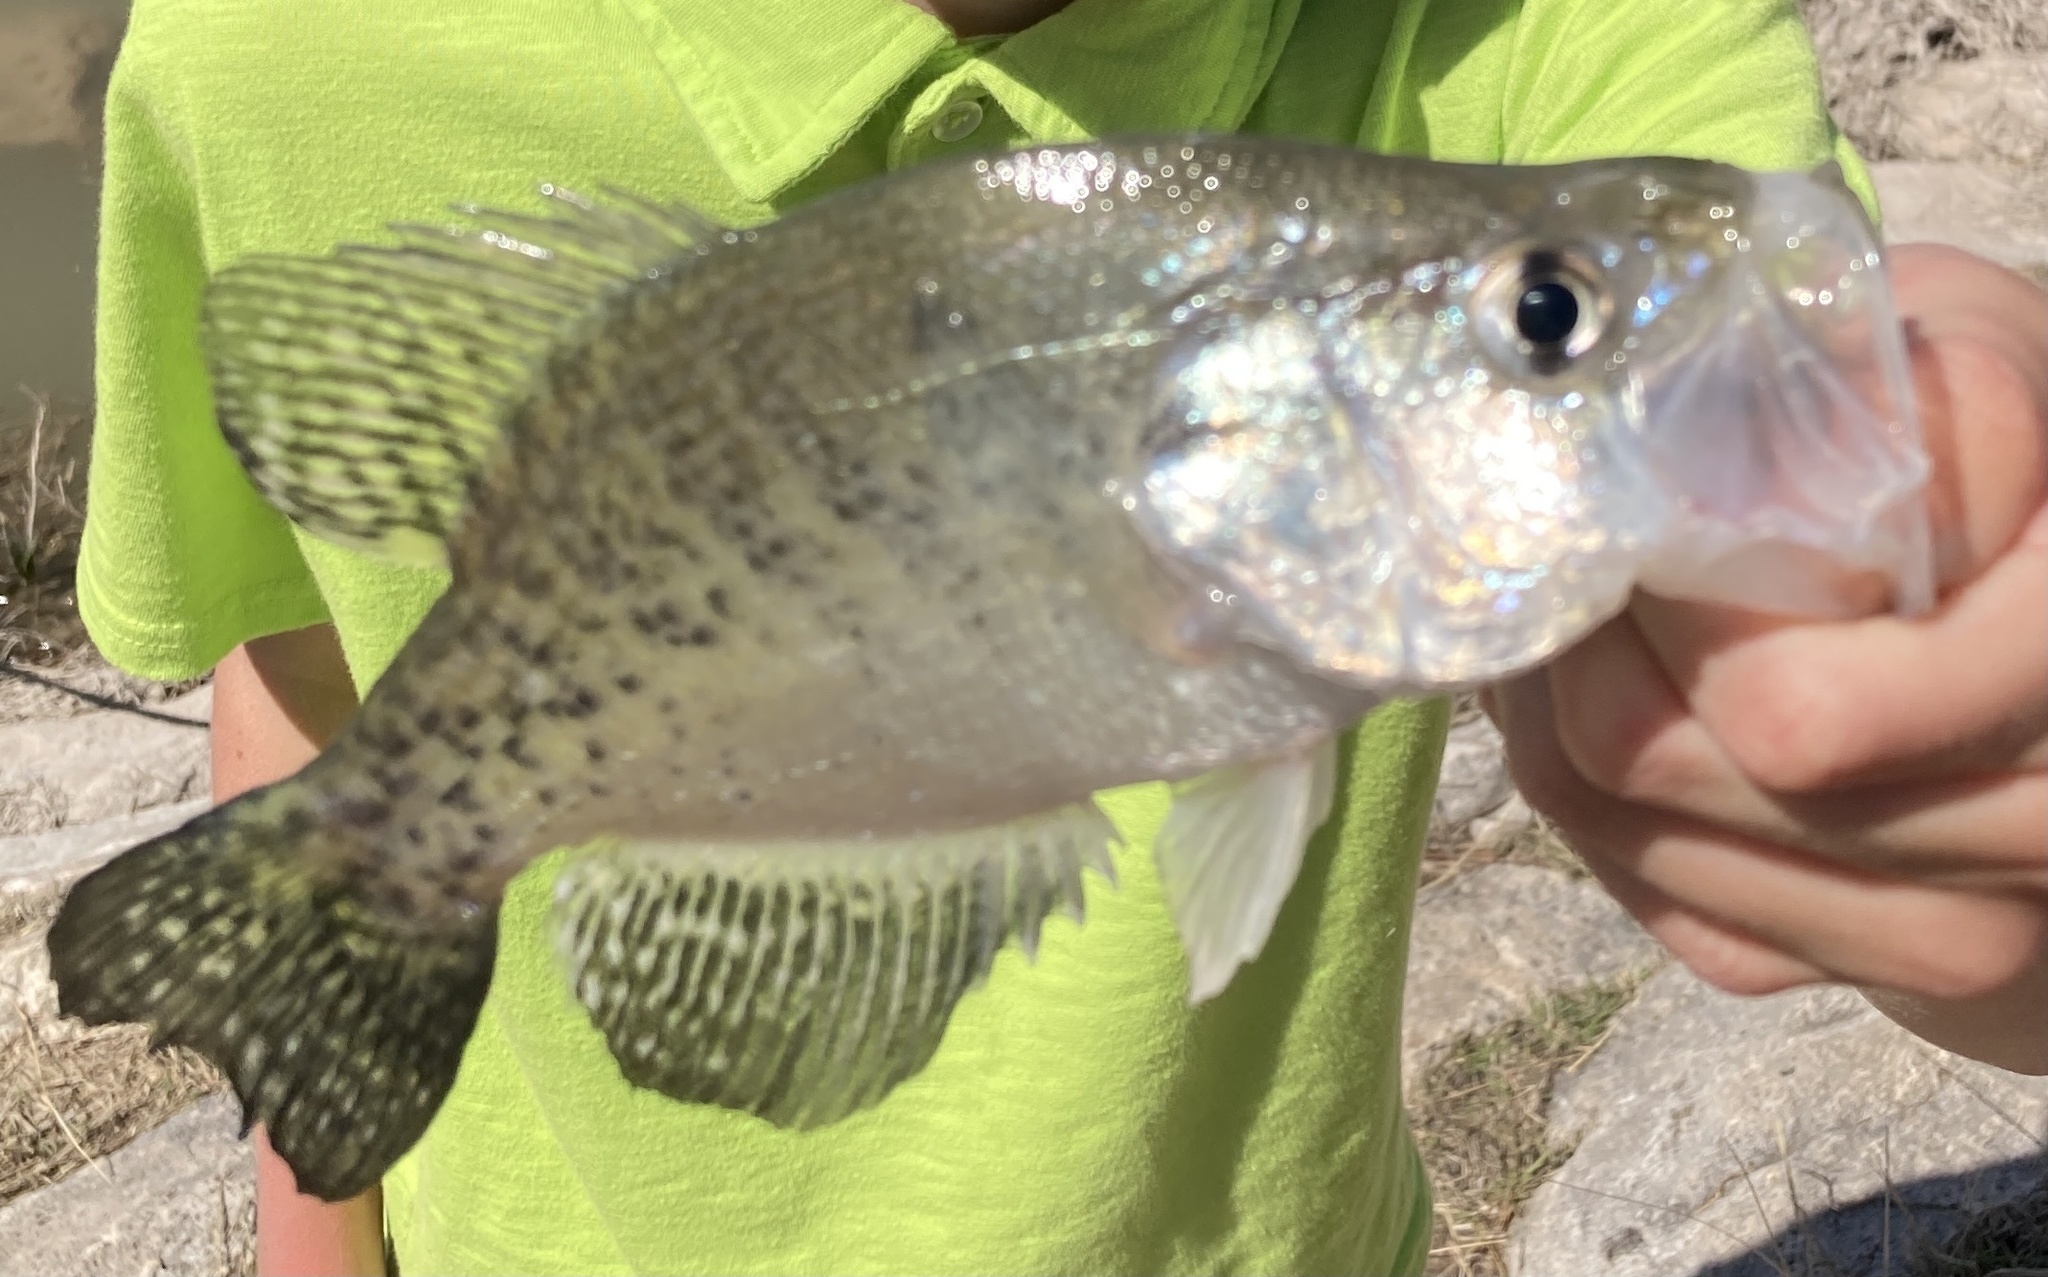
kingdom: Animalia
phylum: Chordata
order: Perciformes
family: Centrarchidae
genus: Pomoxis
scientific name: Pomoxis annularis
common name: White crappie
